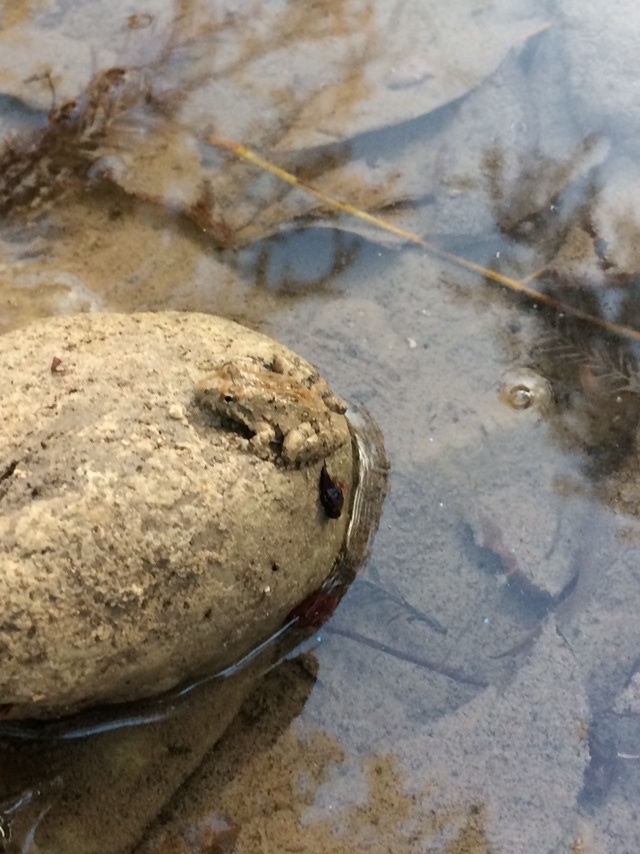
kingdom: Animalia
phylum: Chordata
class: Amphibia
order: Anura
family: Hylidae
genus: Acris
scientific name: Acris blanchardi
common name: Blanchard's cricket frog
